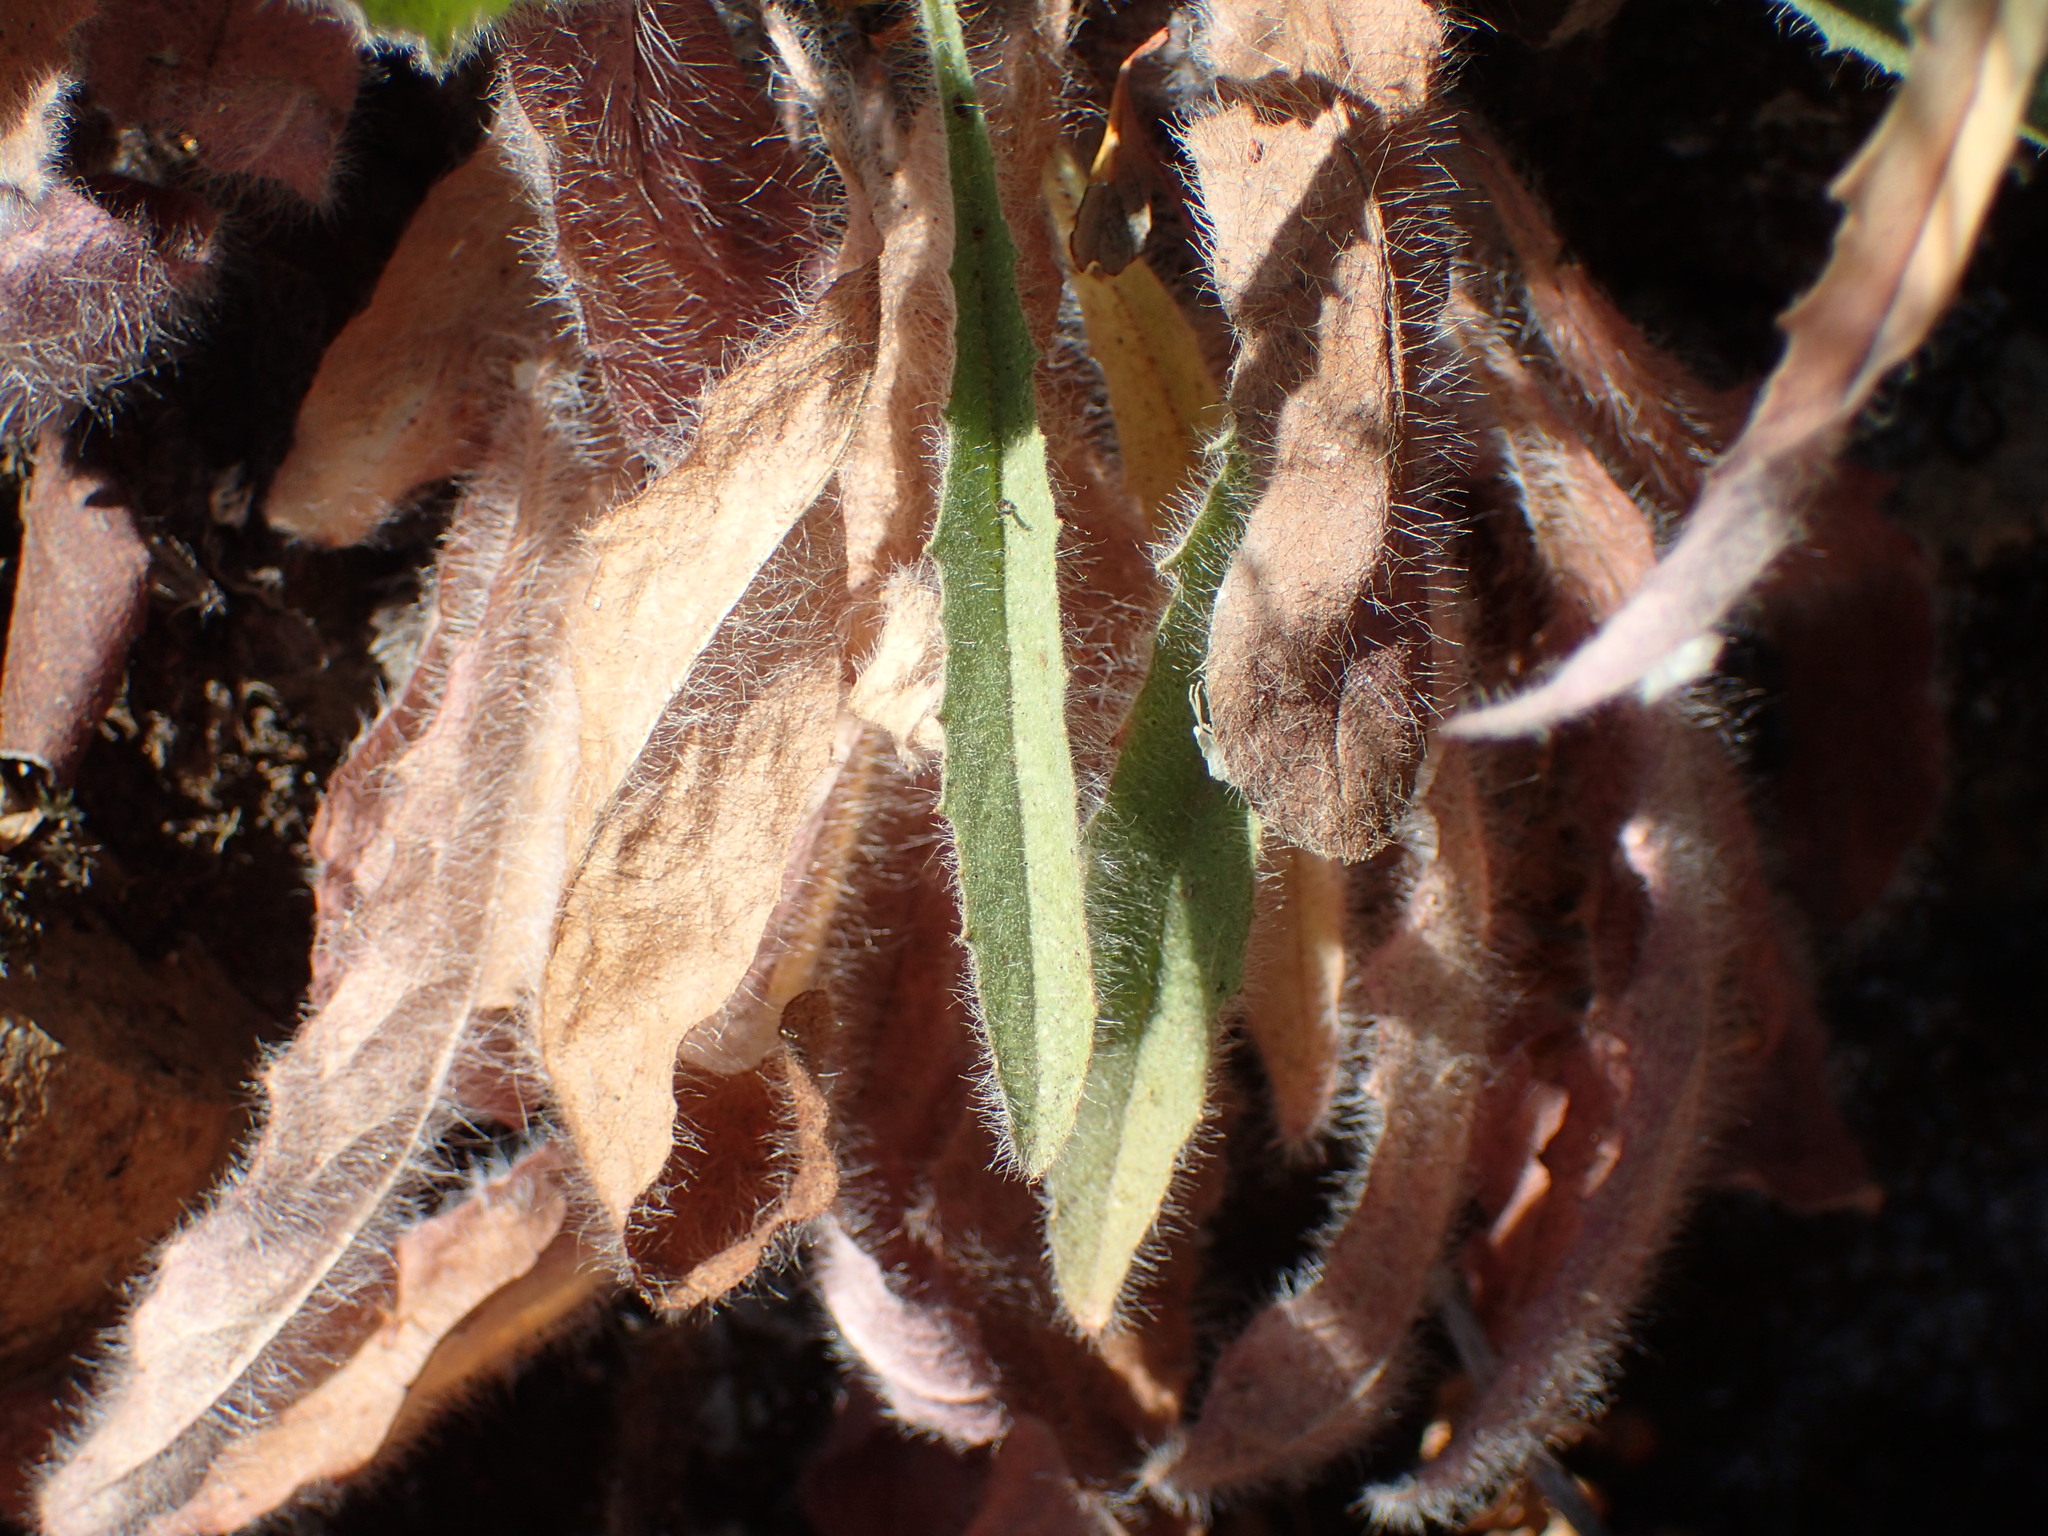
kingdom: Plantae
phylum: Tracheophyta
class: Magnoliopsida
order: Asterales
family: Asteraceae
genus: Hieracium
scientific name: Hieracium argutum
